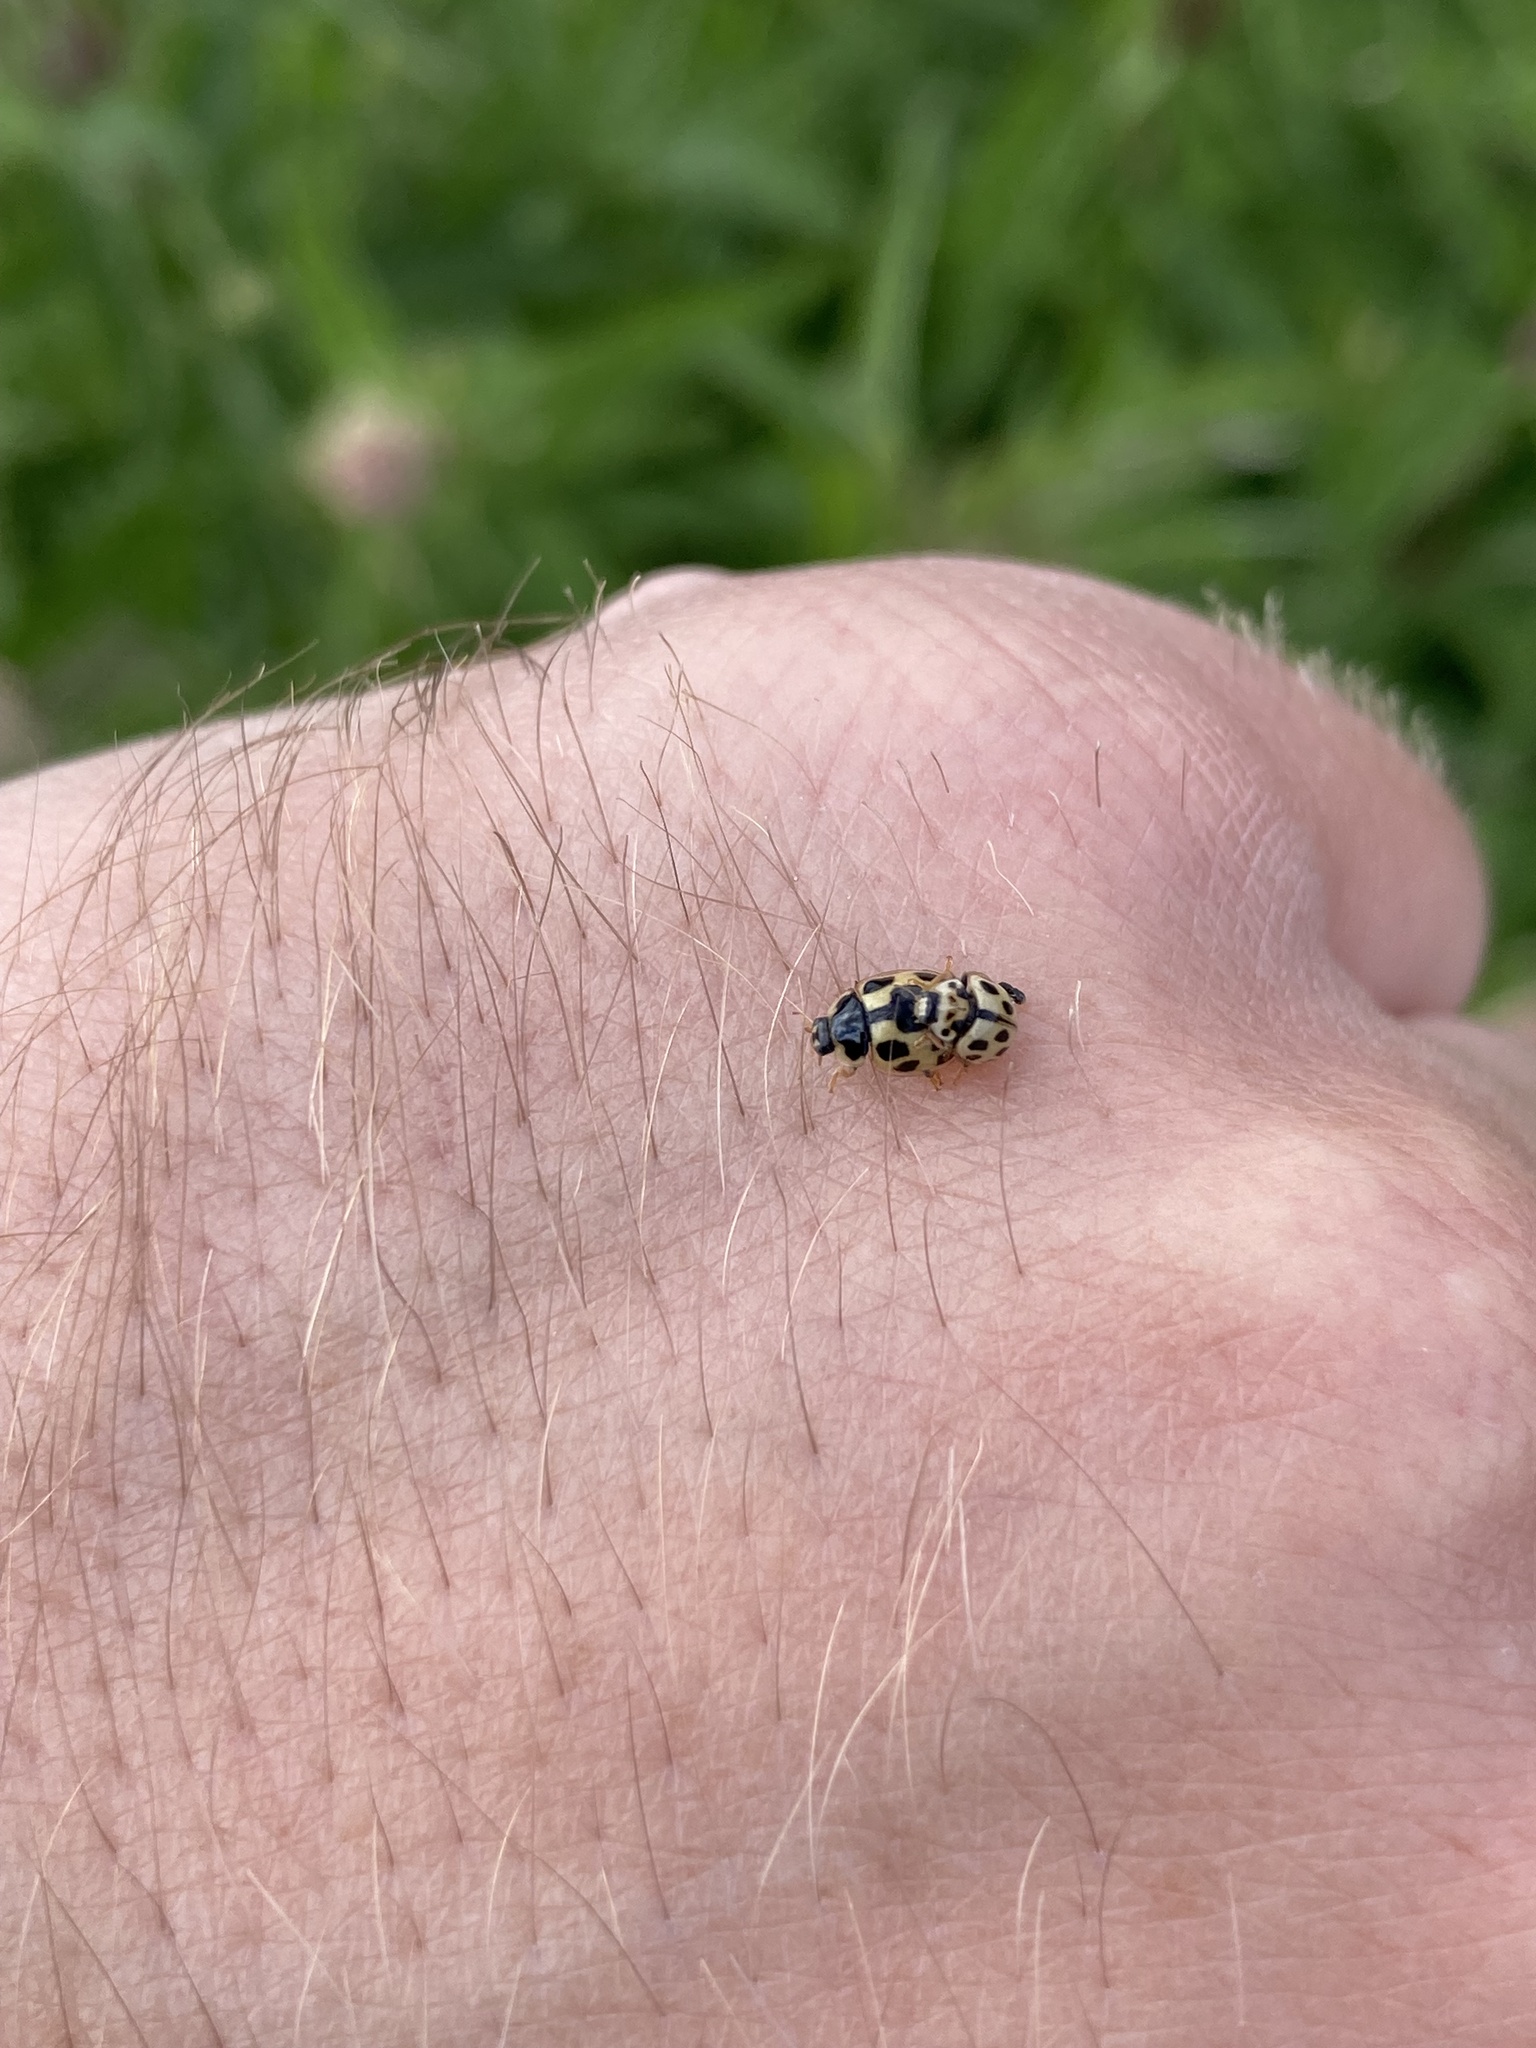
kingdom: Animalia
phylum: Arthropoda
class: Insecta
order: Coleoptera
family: Coccinellidae
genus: Propylaea
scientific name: Propylaea quatuordecimpunctata
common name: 14-spotted ladybird beetle
